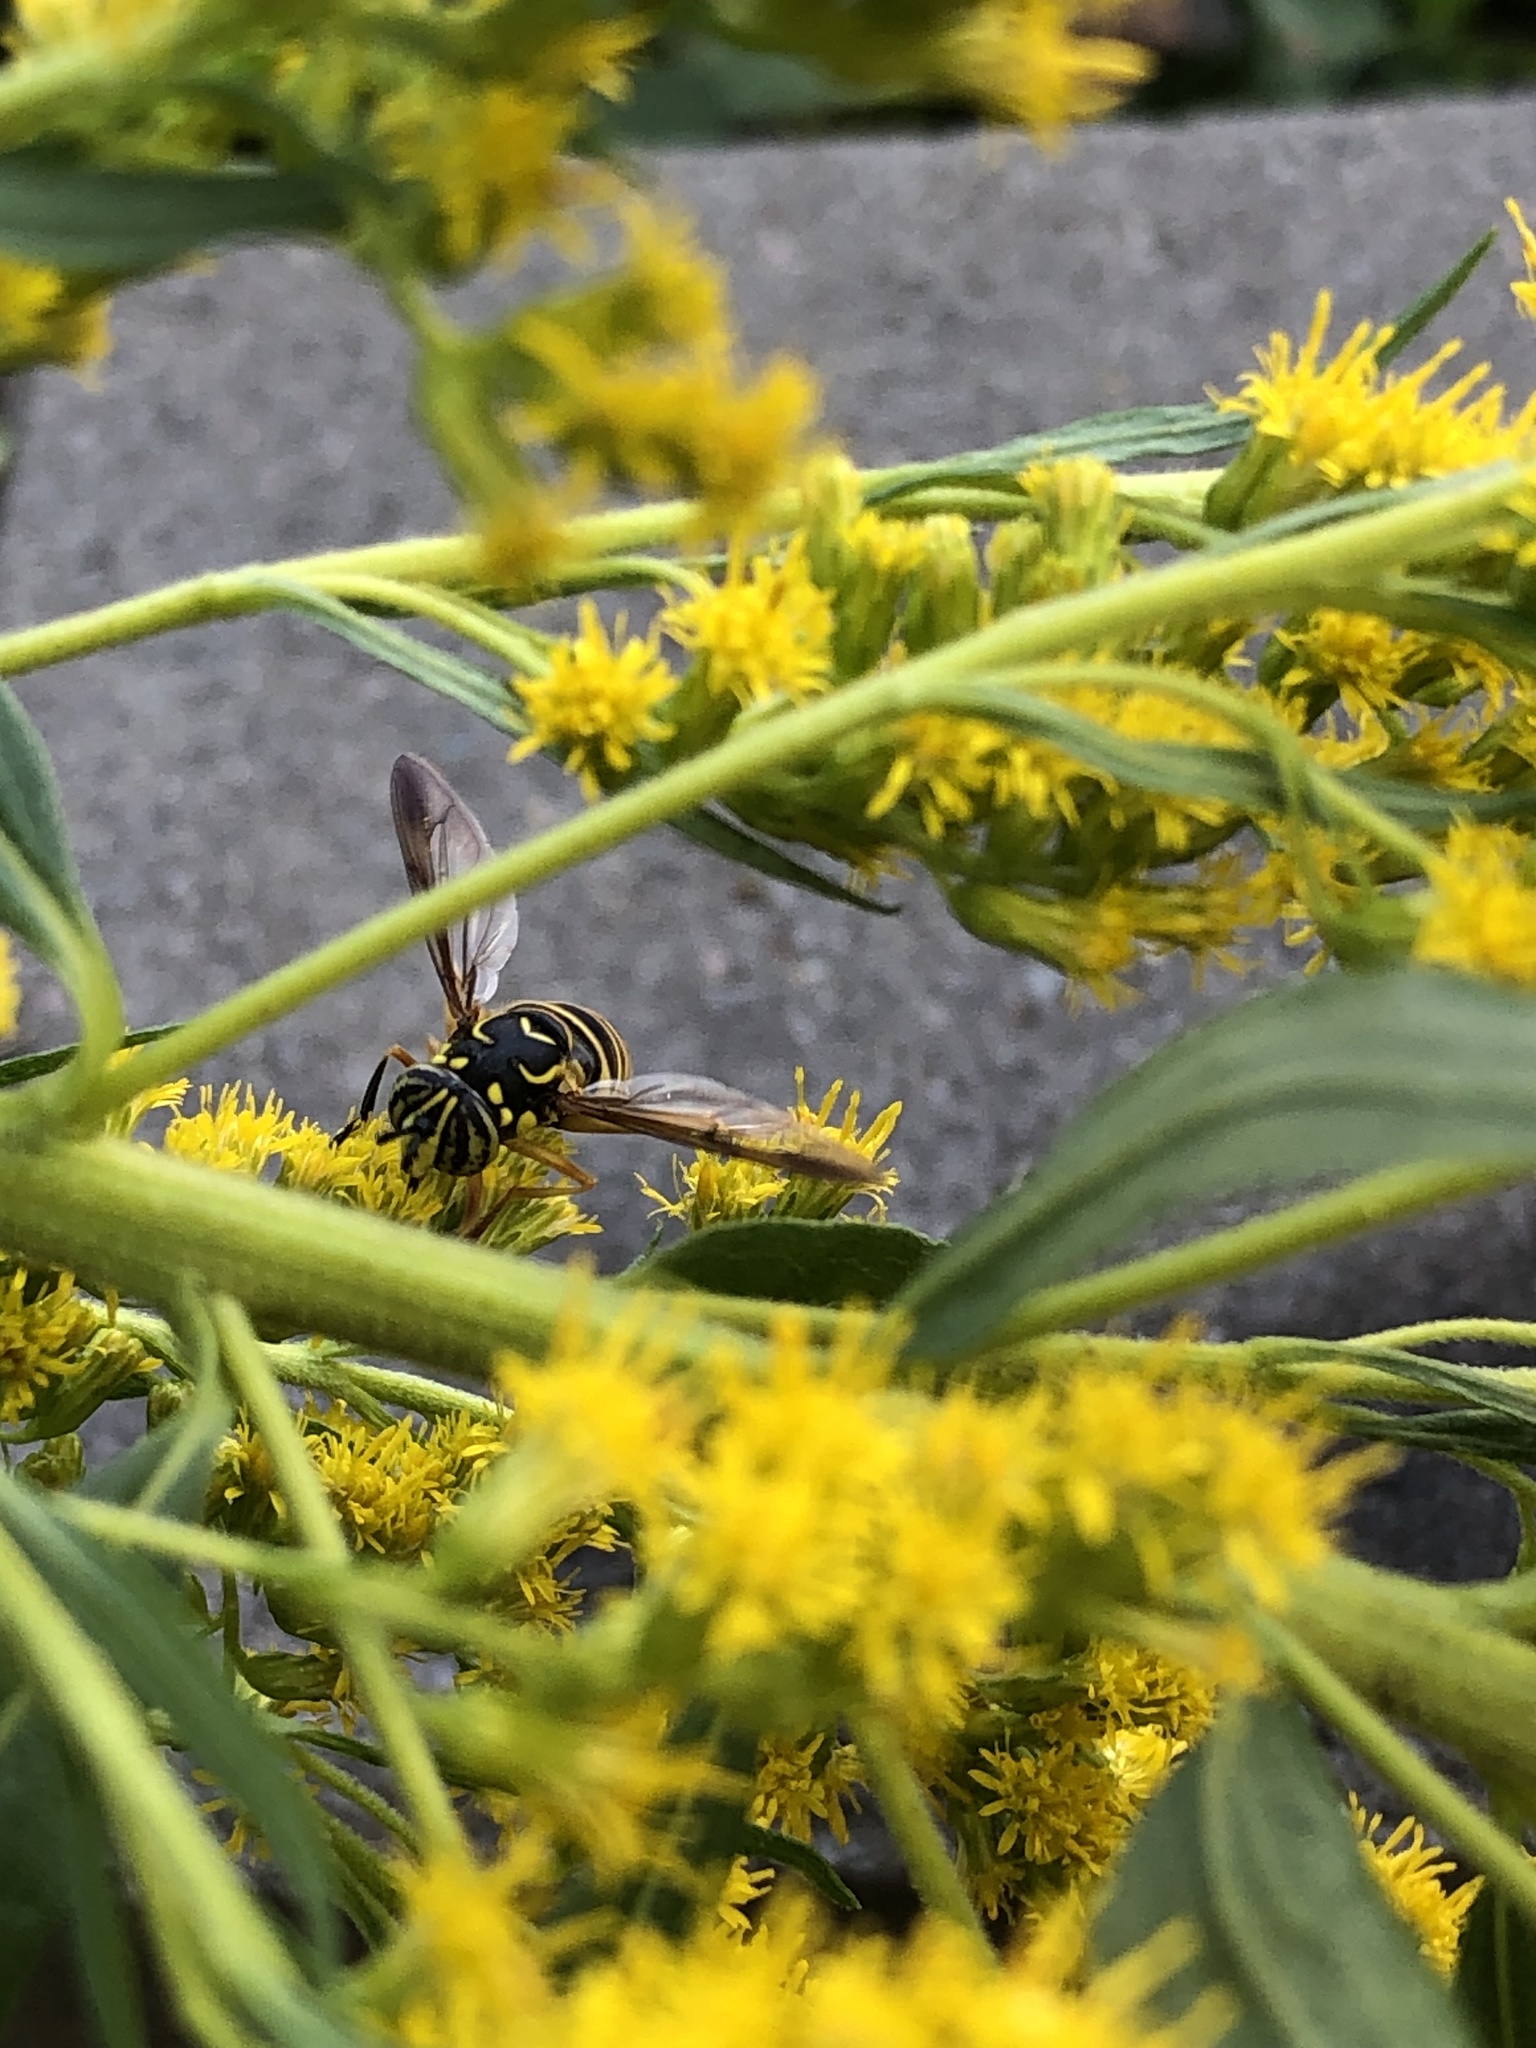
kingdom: Animalia
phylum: Arthropoda
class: Insecta
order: Diptera
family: Syrphidae
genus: Spilomyia
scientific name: Spilomyia longicornis
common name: Eastern hornet fly
